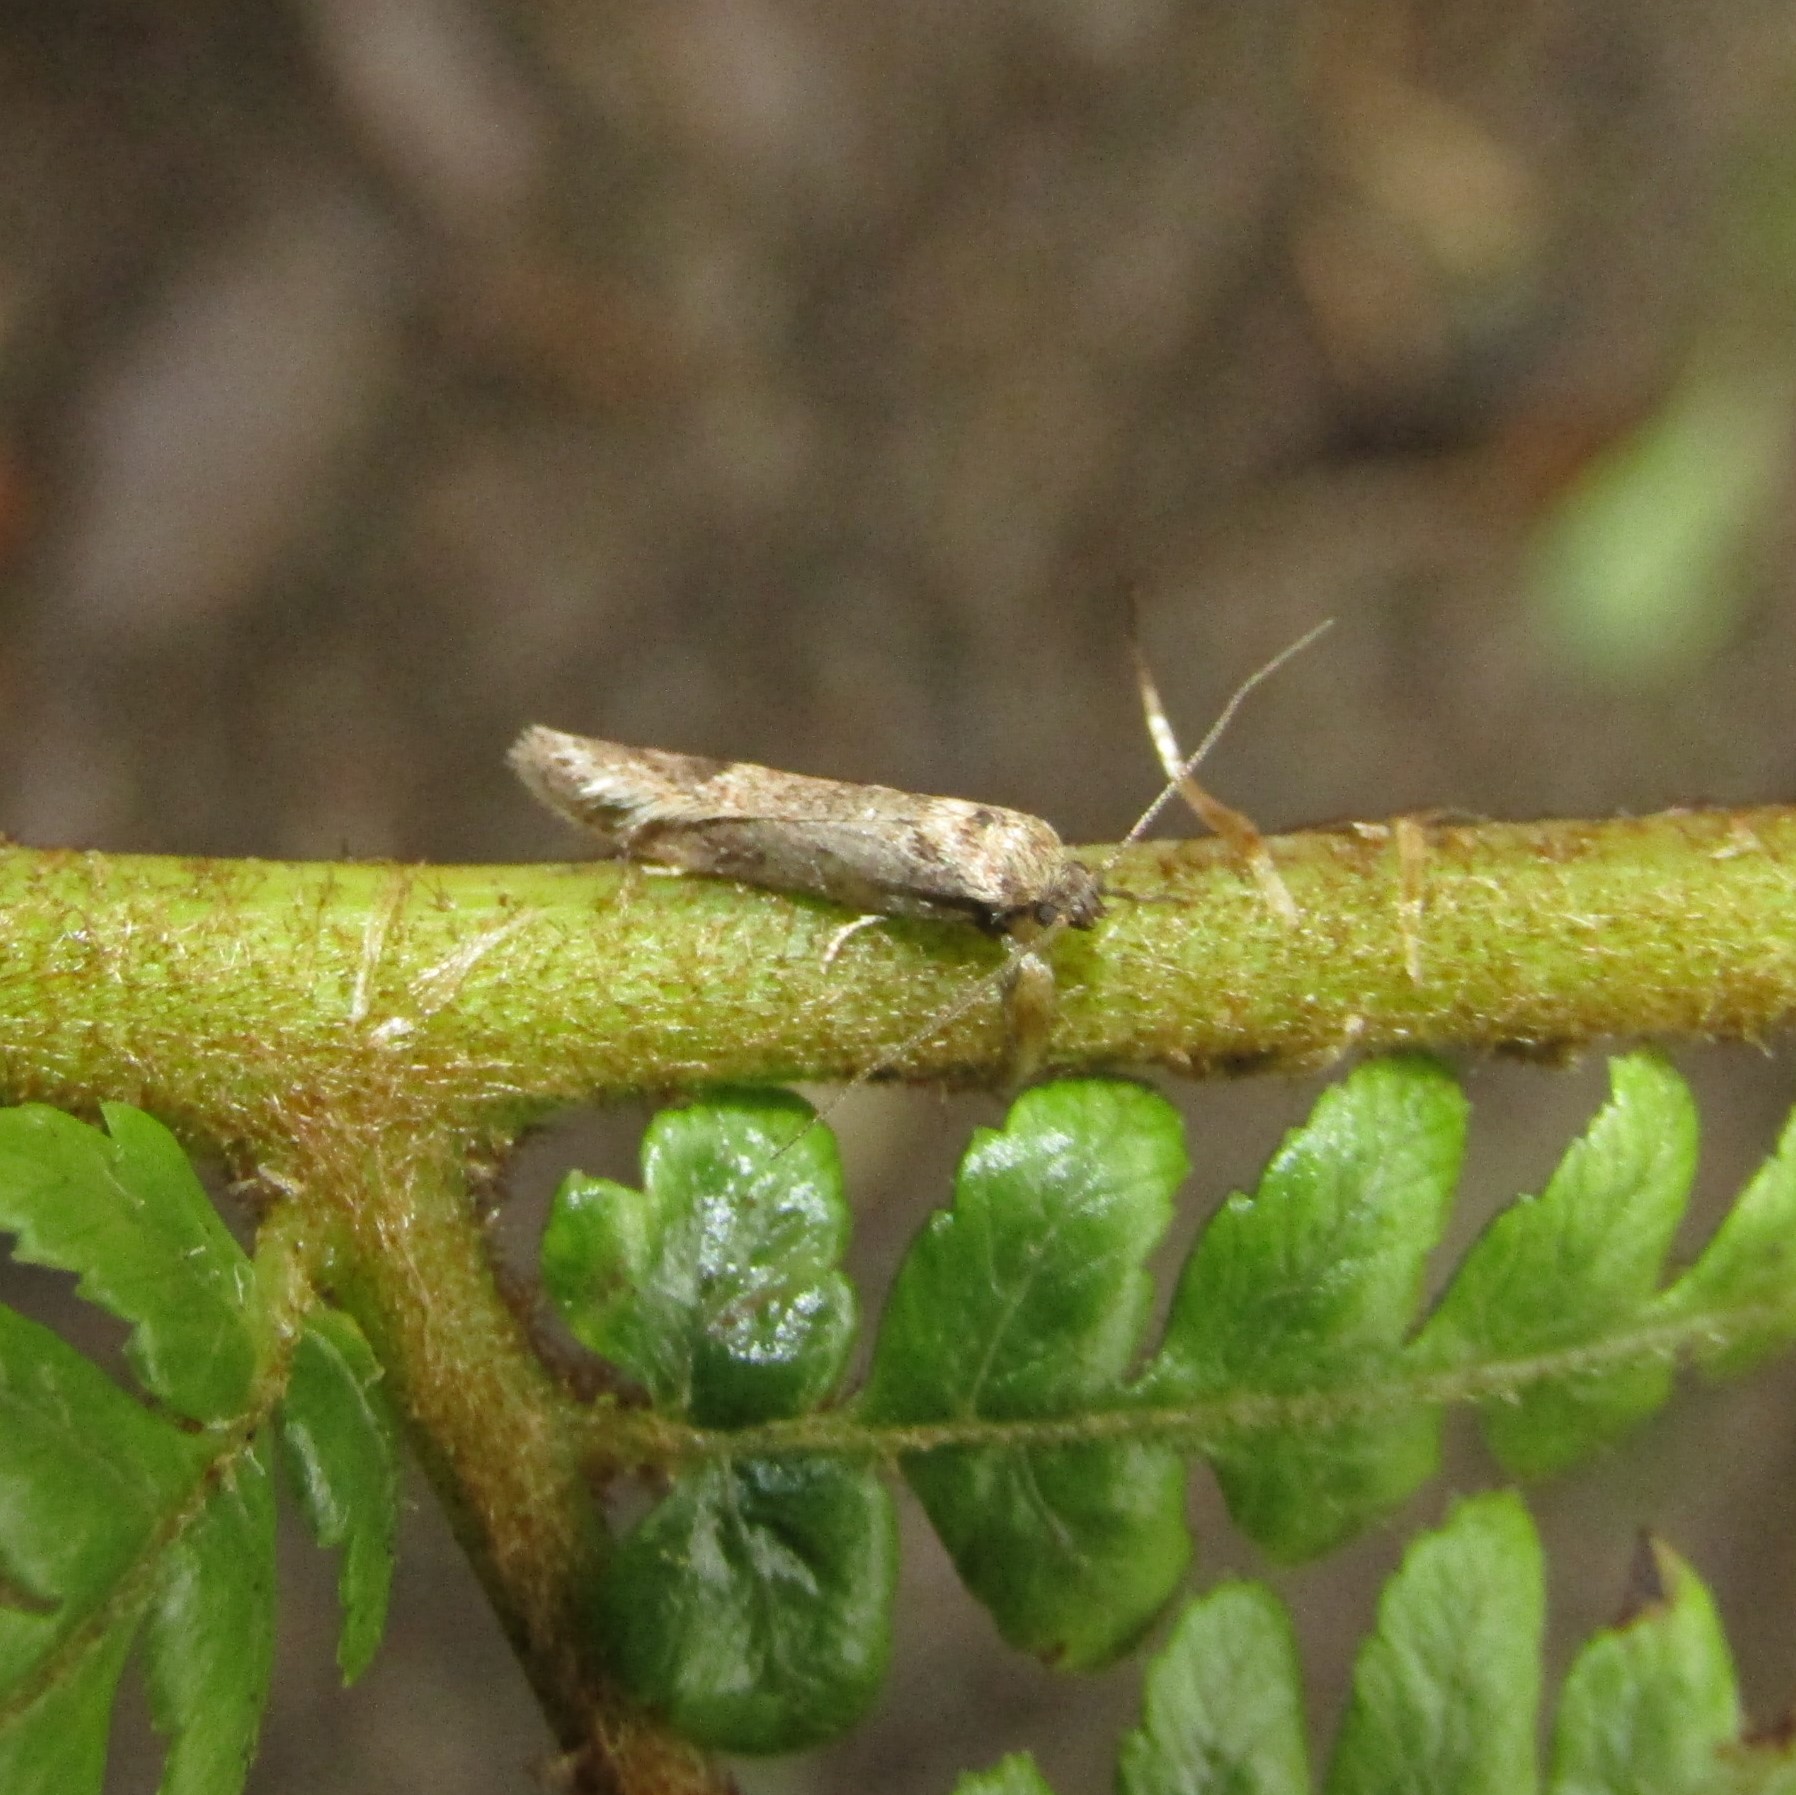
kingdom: Animalia
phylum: Arthropoda
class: Insecta
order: Lepidoptera
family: Oecophoridae
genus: Chersadaula
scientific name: Chersadaula ochrogastra
